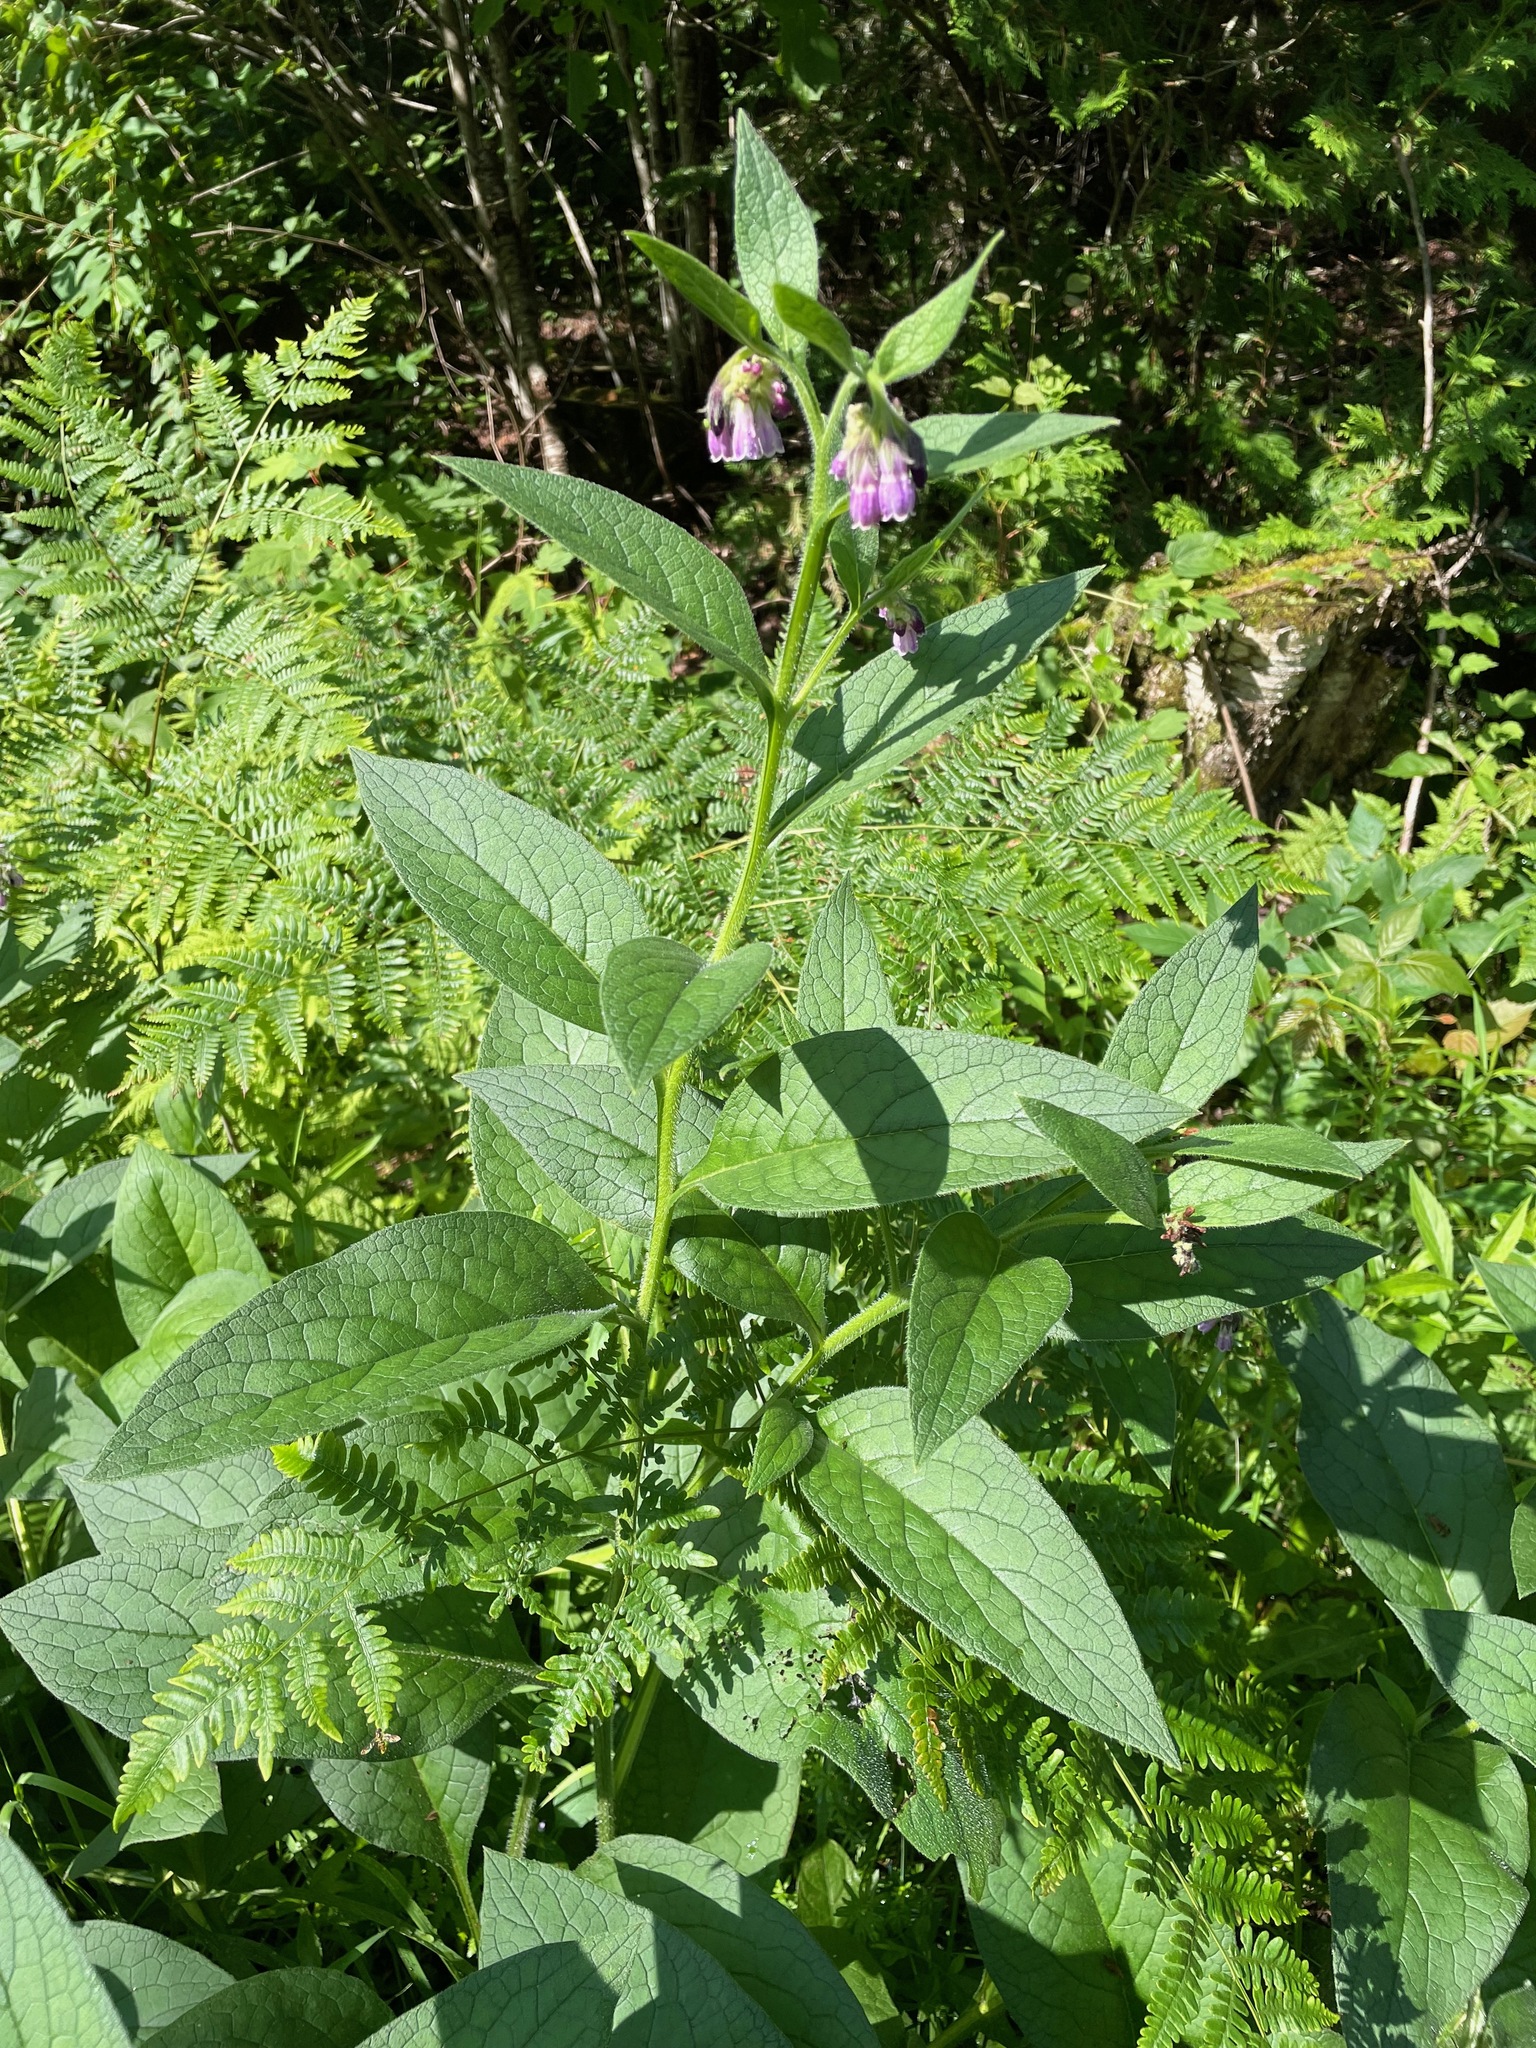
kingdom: Plantae
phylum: Tracheophyta
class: Magnoliopsida
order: Boraginales
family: Boraginaceae
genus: Symphytum
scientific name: Symphytum officinale
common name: Common comfrey
